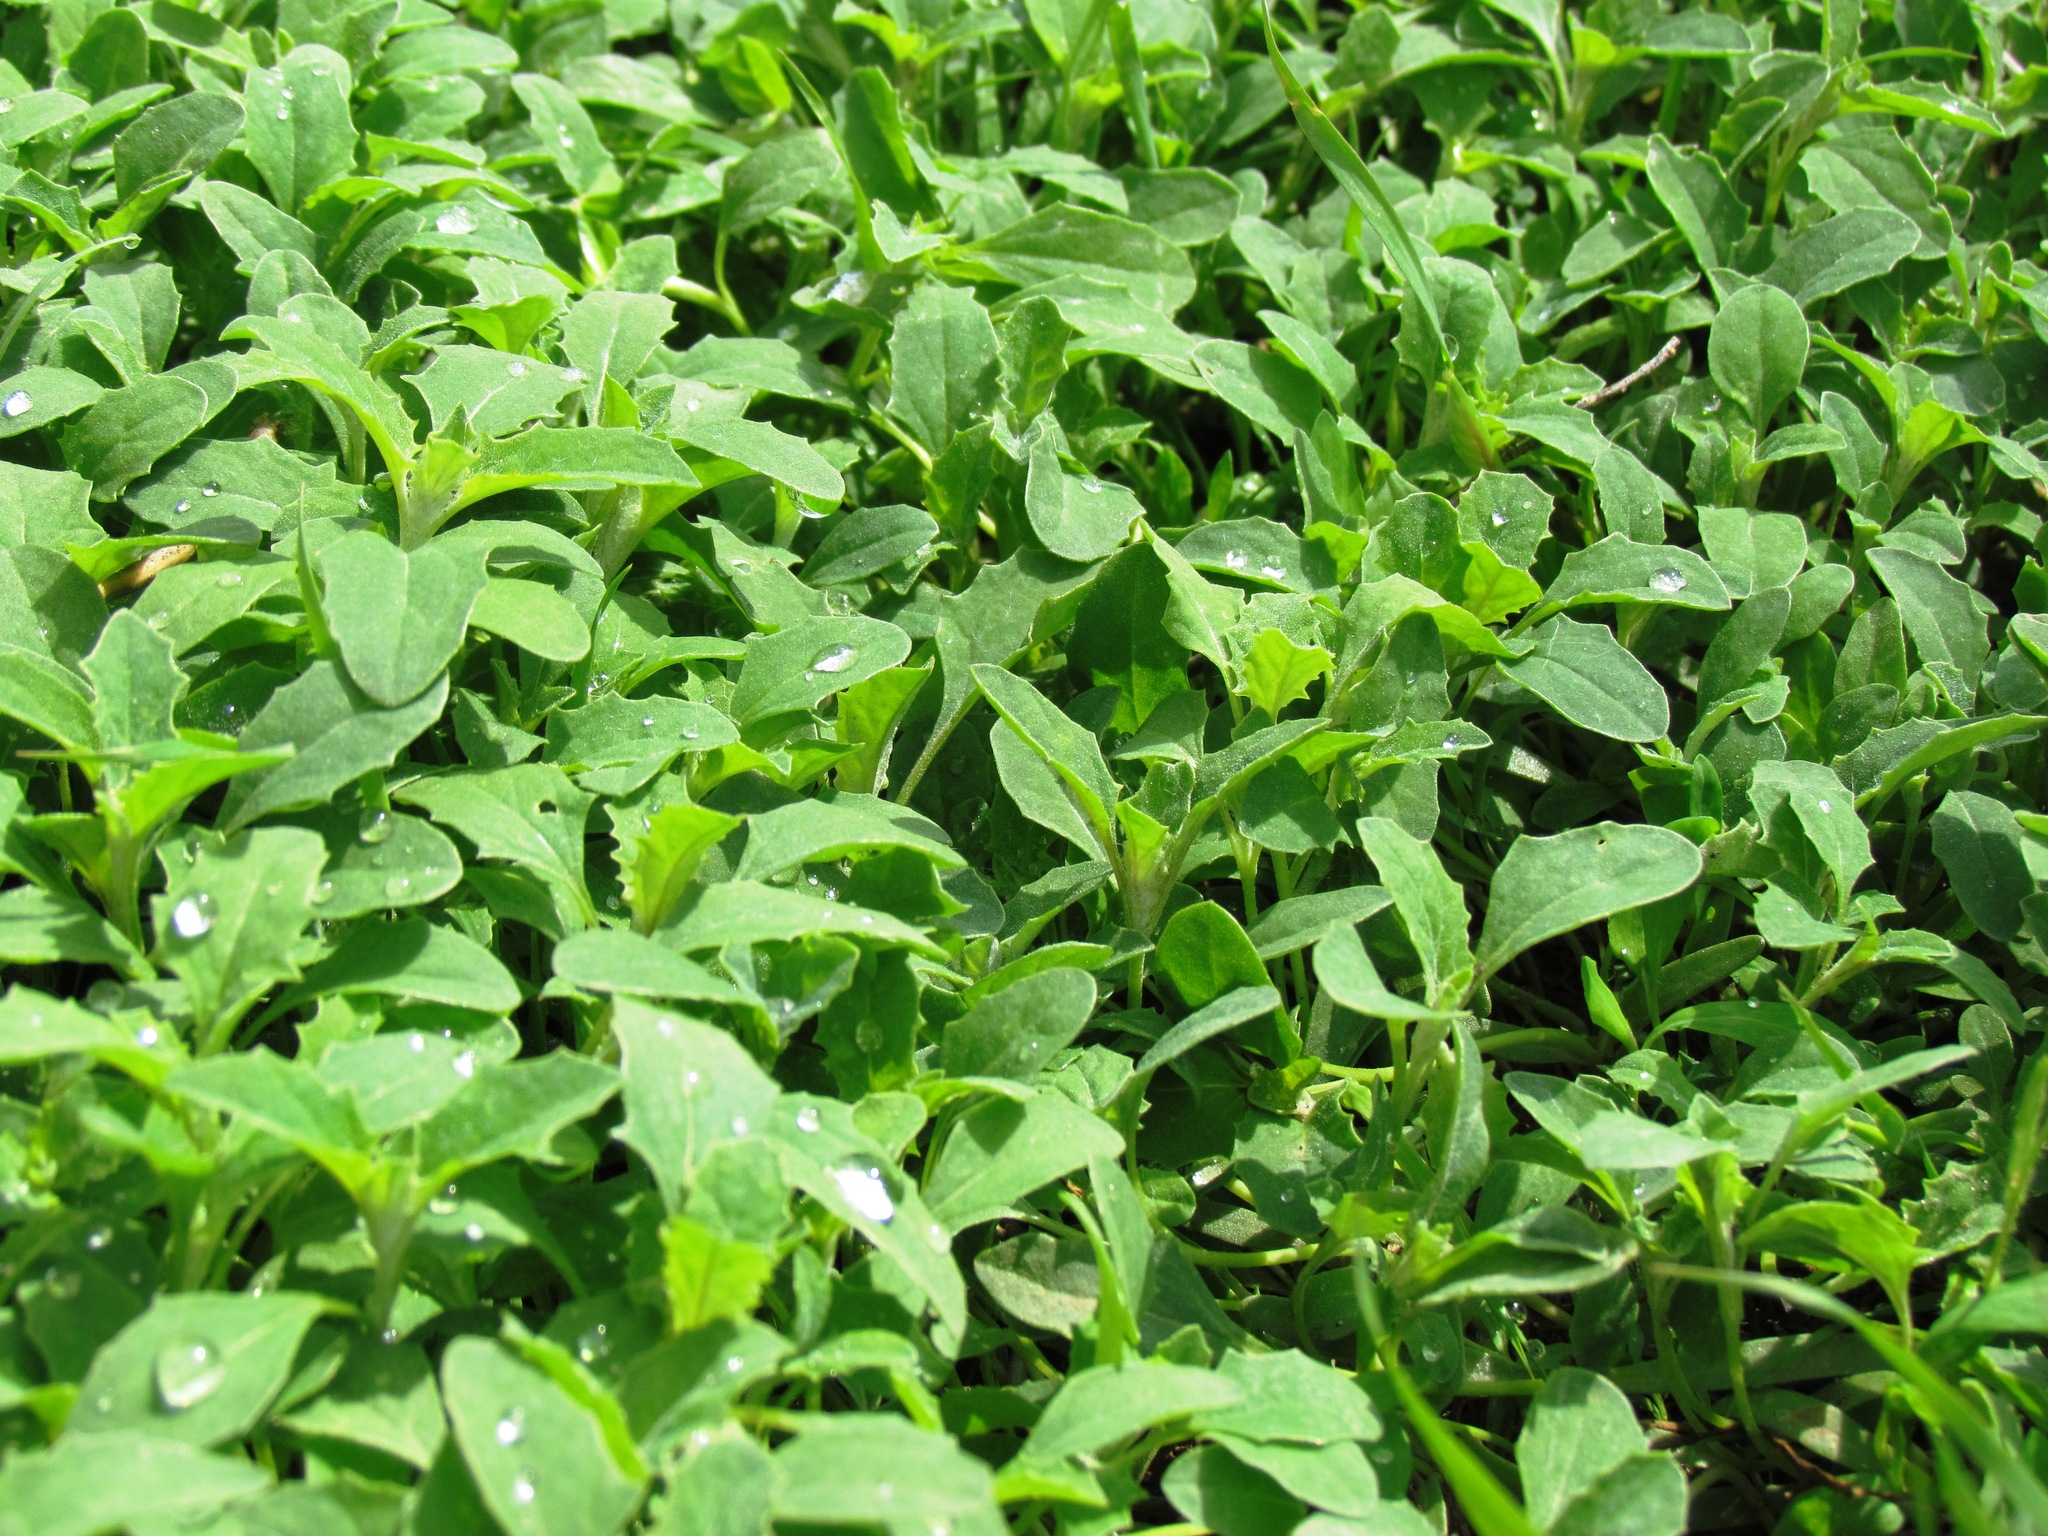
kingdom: Plantae
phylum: Tracheophyta
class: Magnoliopsida
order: Caryophyllales
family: Amaranthaceae
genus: Atriplex
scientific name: Atriplex tatarica
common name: Tatarian orache
